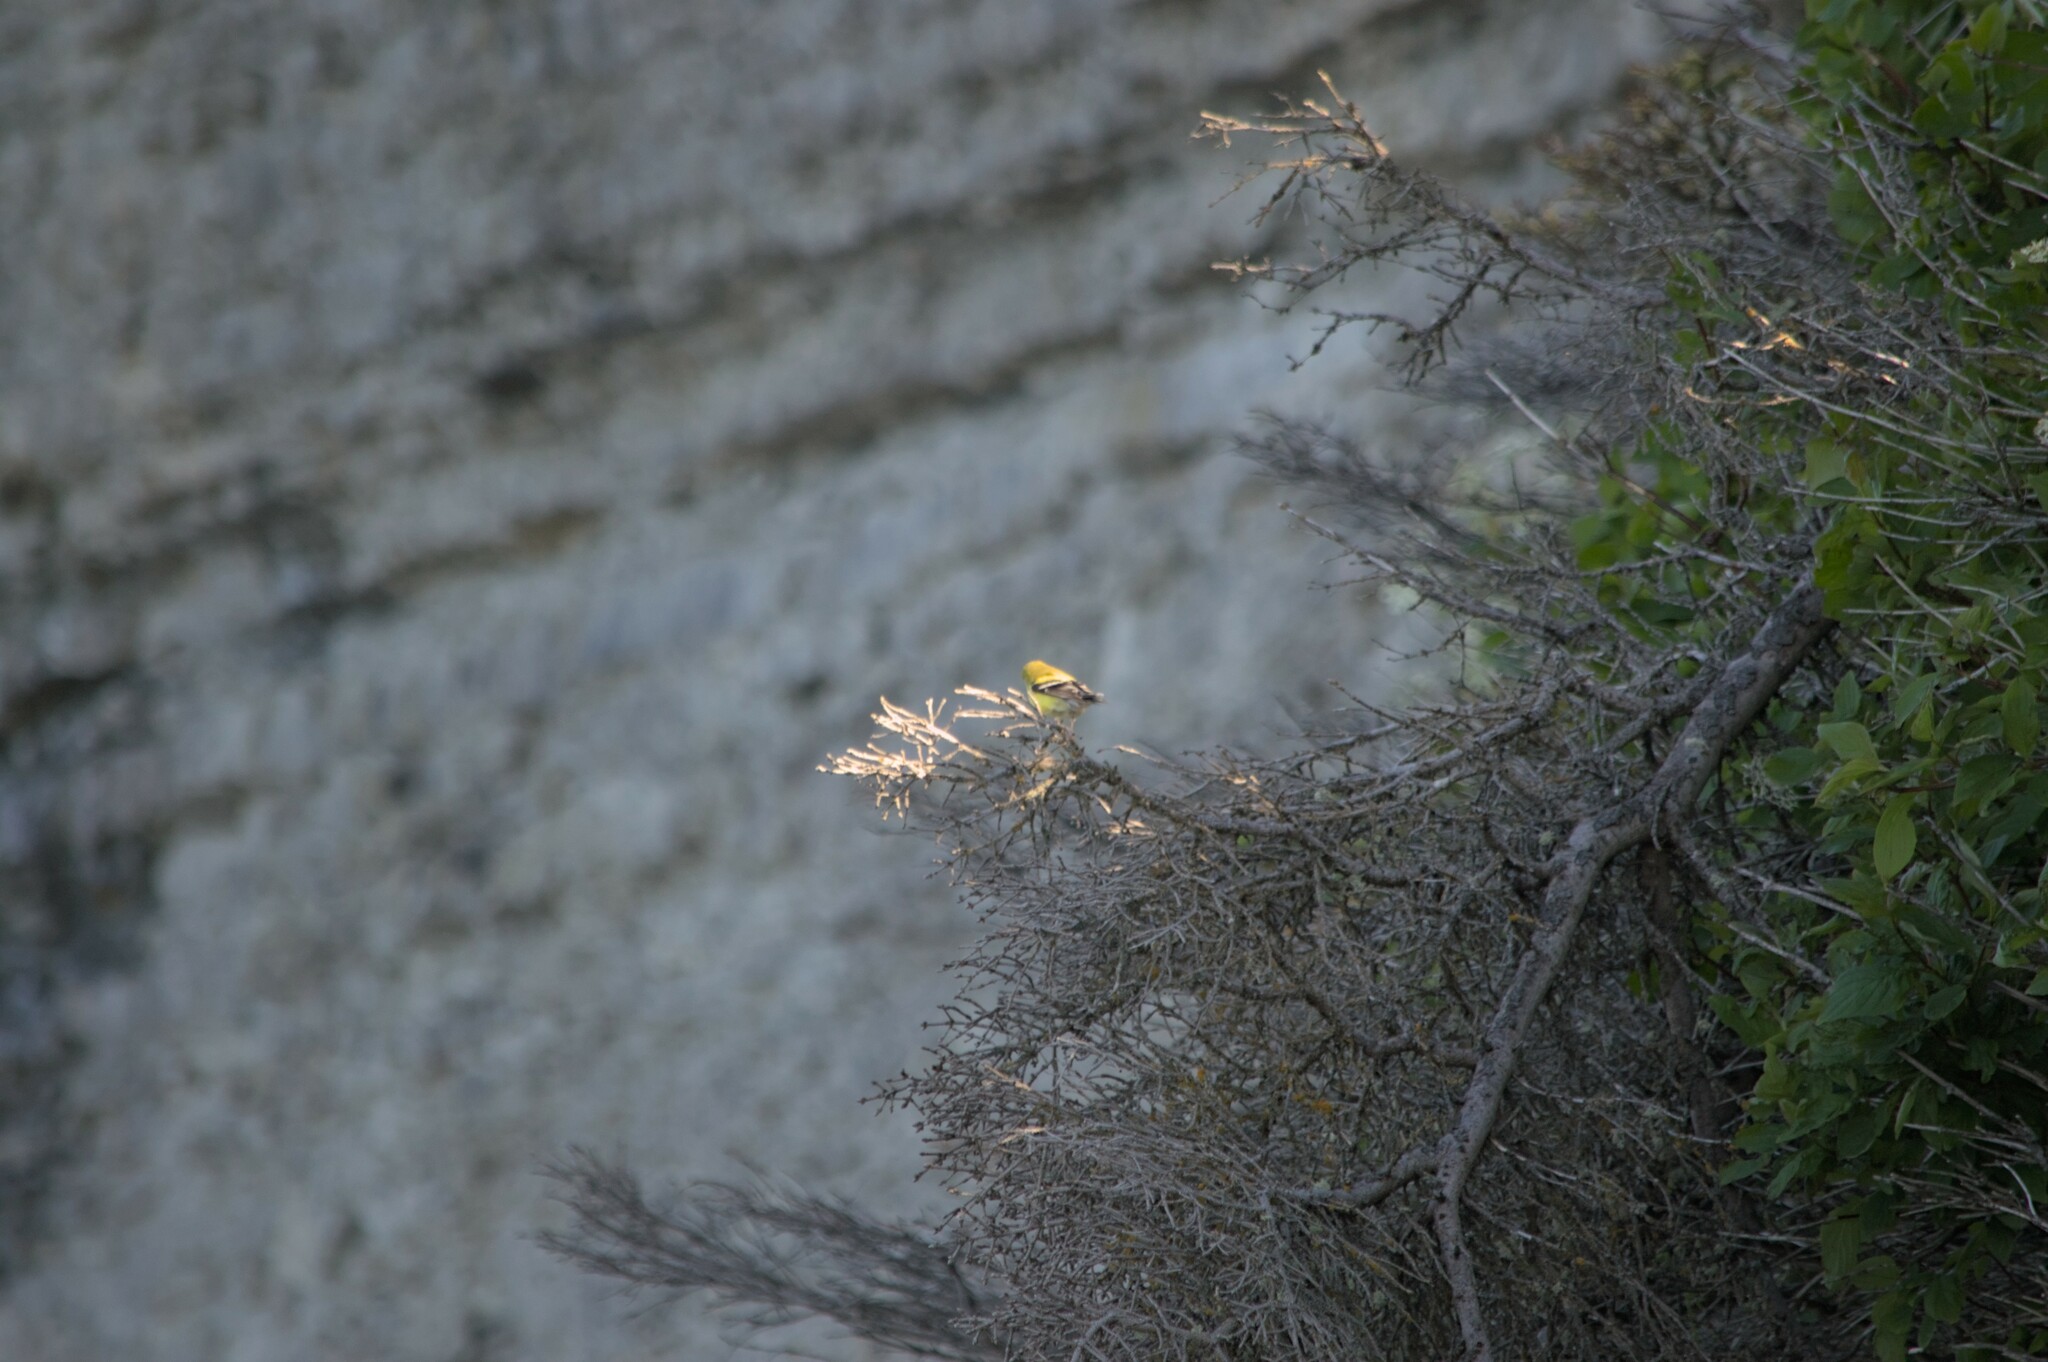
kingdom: Animalia
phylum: Chordata
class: Aves
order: Passeriformes
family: Fringillidae
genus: Spinus
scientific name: Spinus tristis
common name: American goldfinch
